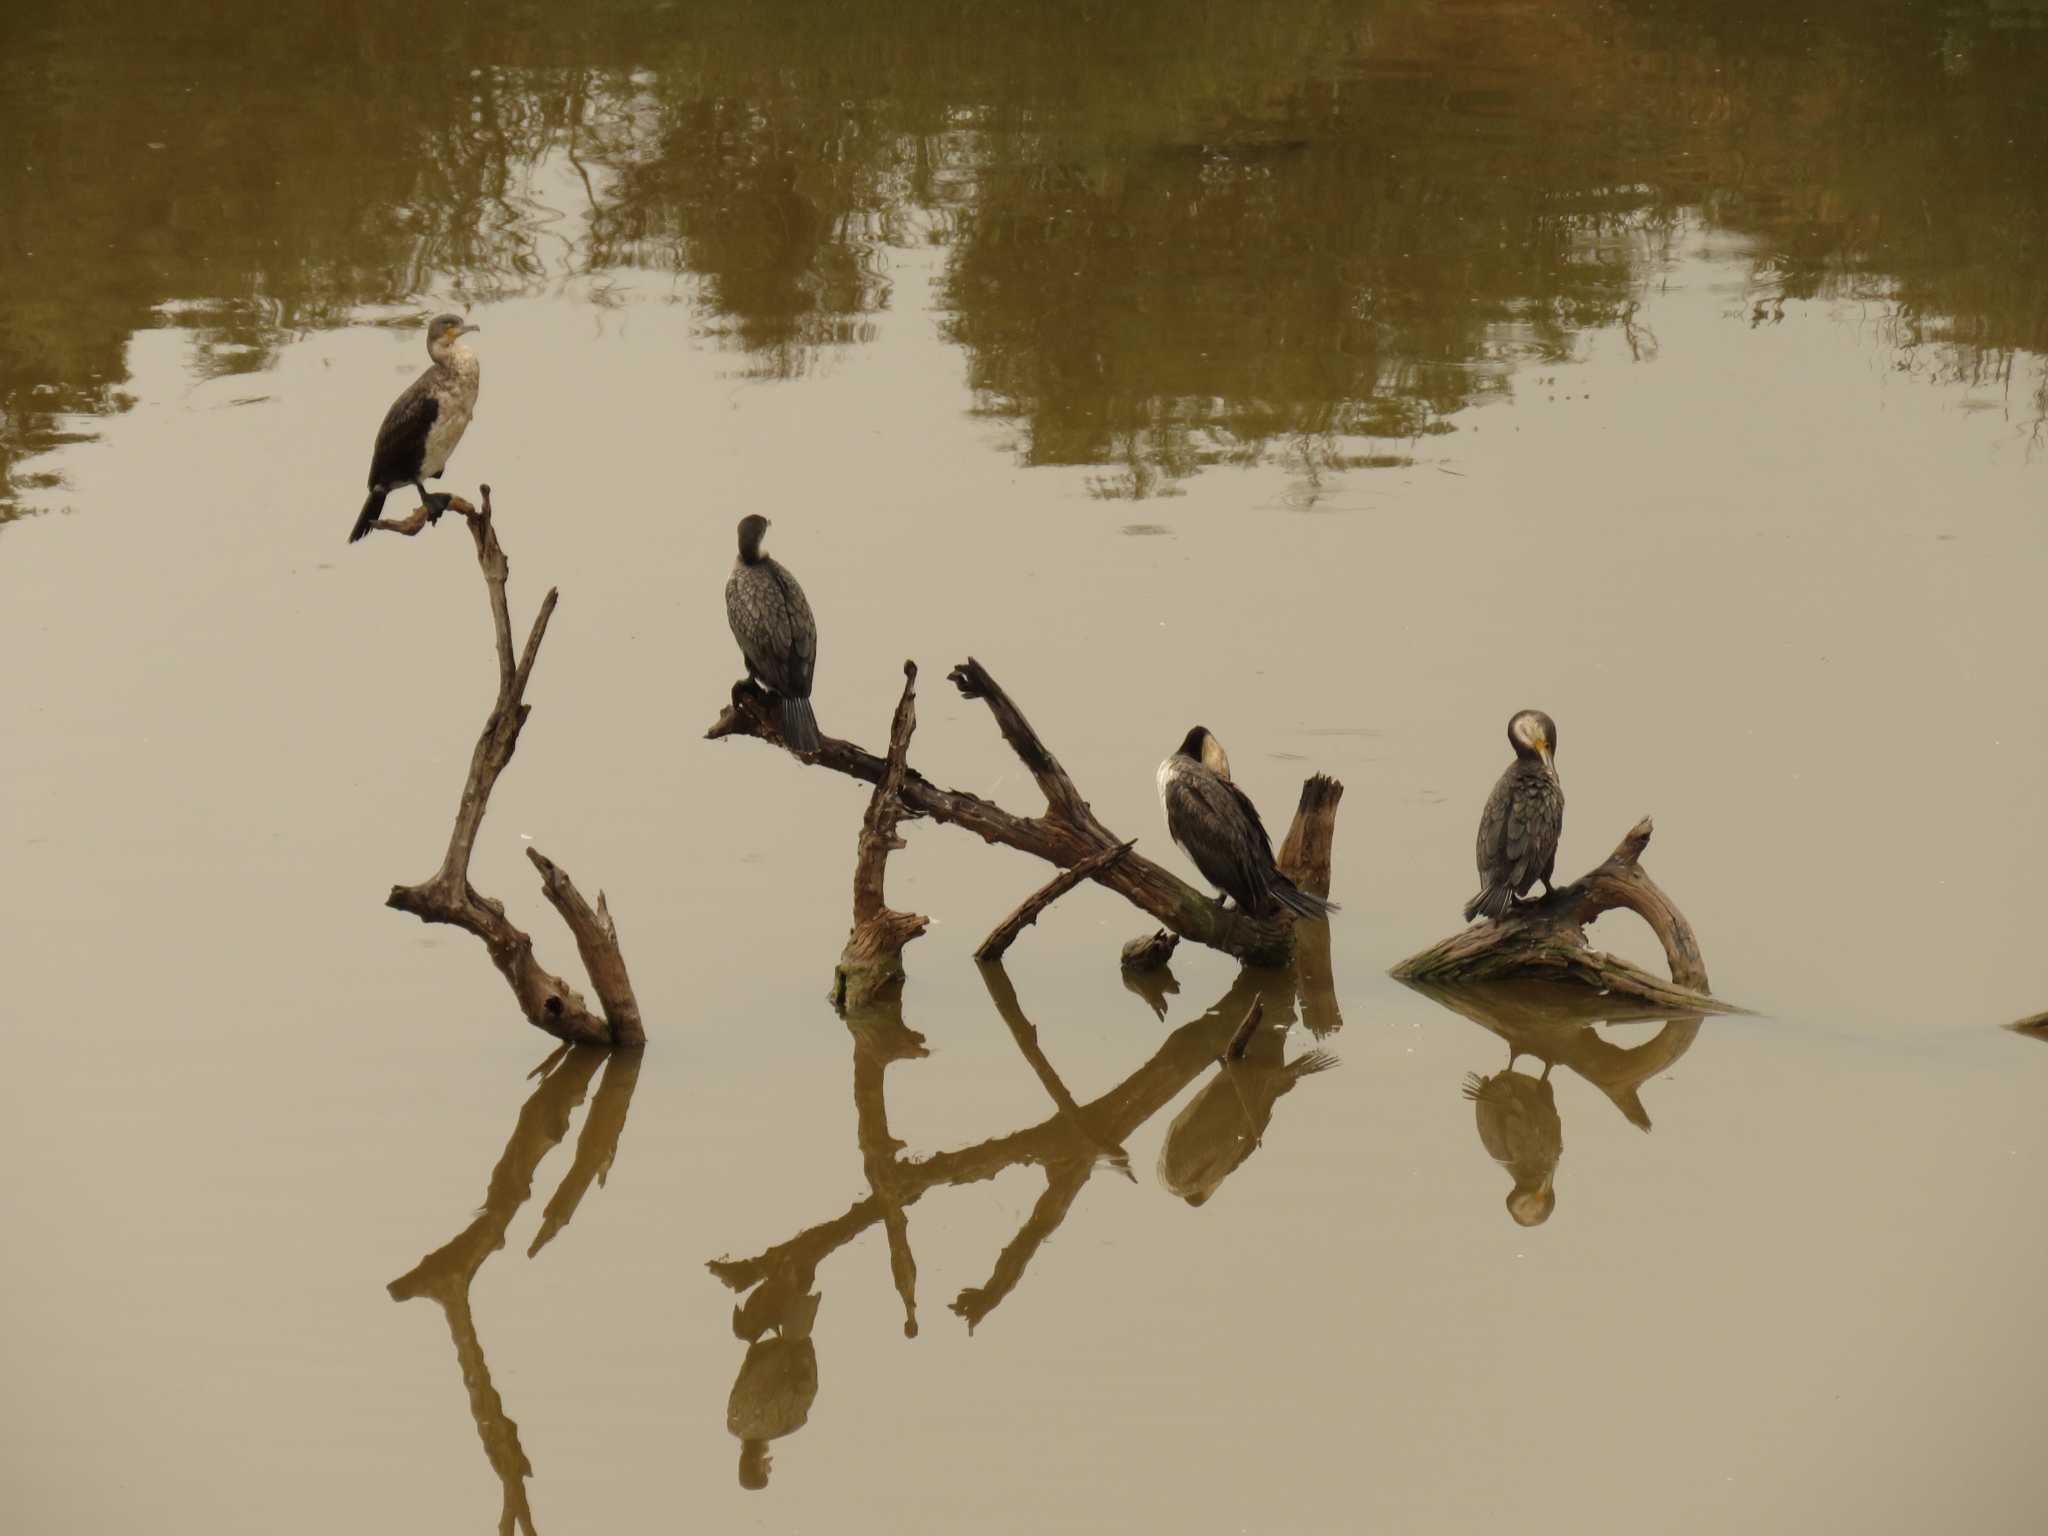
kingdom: Animalia
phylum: Chordata
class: Aves
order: Suliformes
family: Phalacrocoracidae
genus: Phalacrocorax
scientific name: Phalacrocorax carbo
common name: Great cormorant
